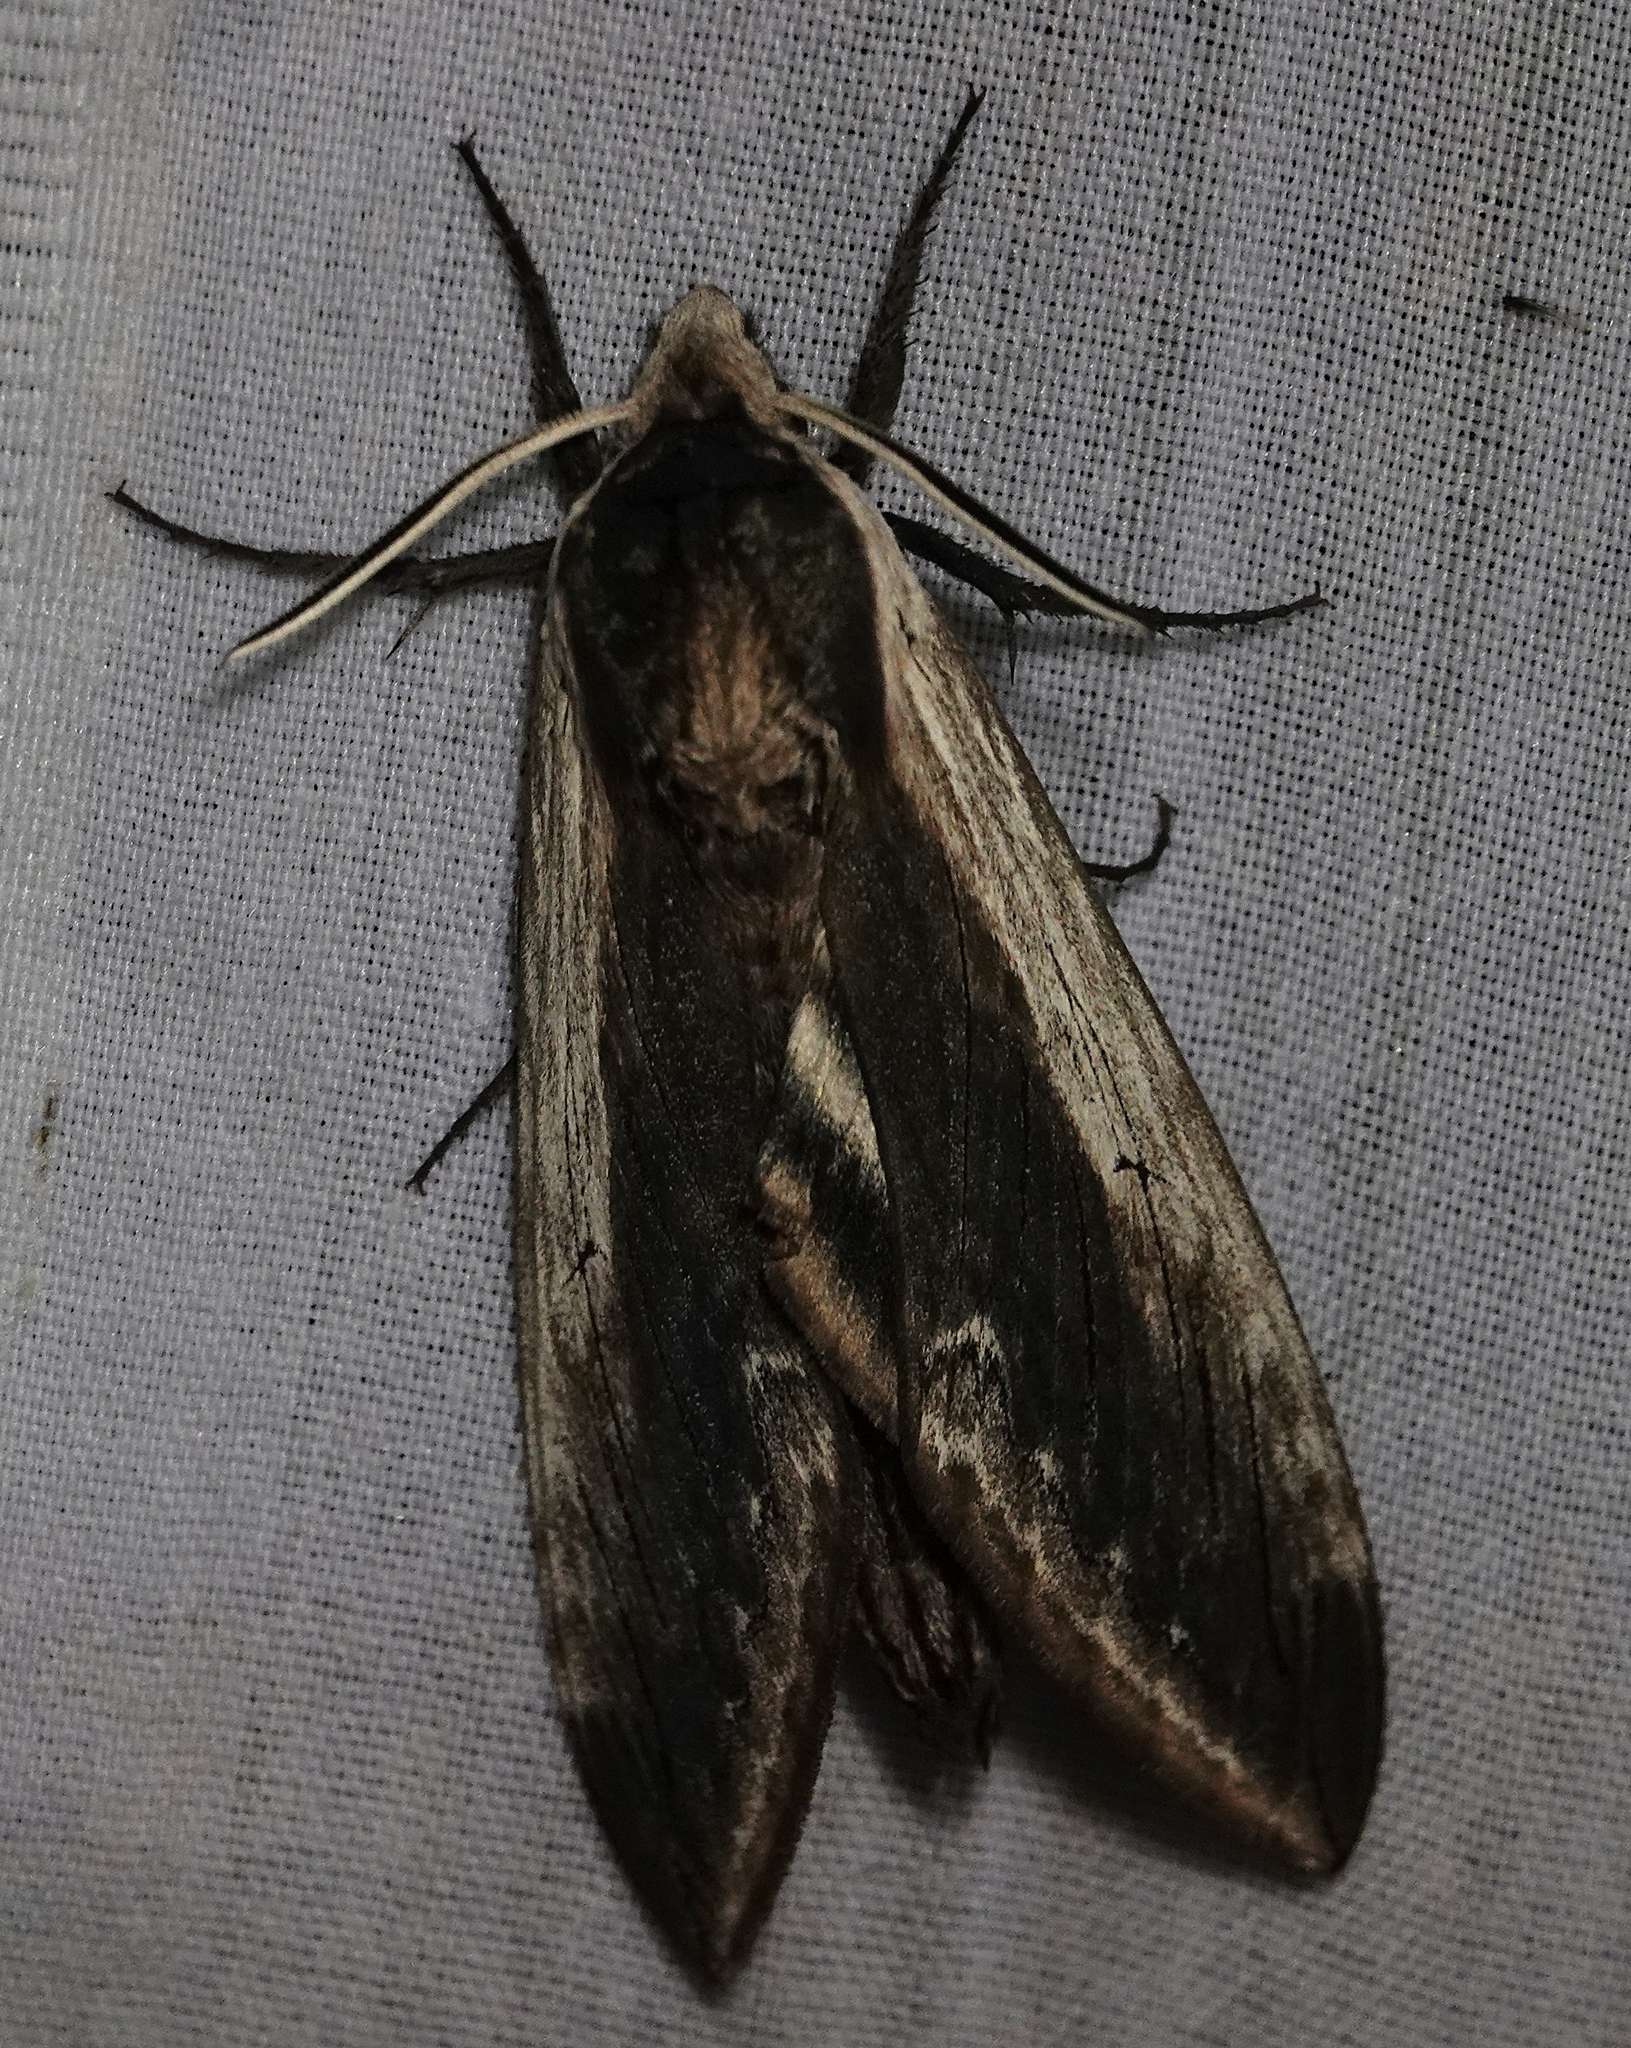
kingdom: Animalia
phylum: Arthropoda
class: Insecta
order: Lepidoptera
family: Sphingidae
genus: Sphinx
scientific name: Sphinx drupiferarum
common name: Wild cherry sphinx
